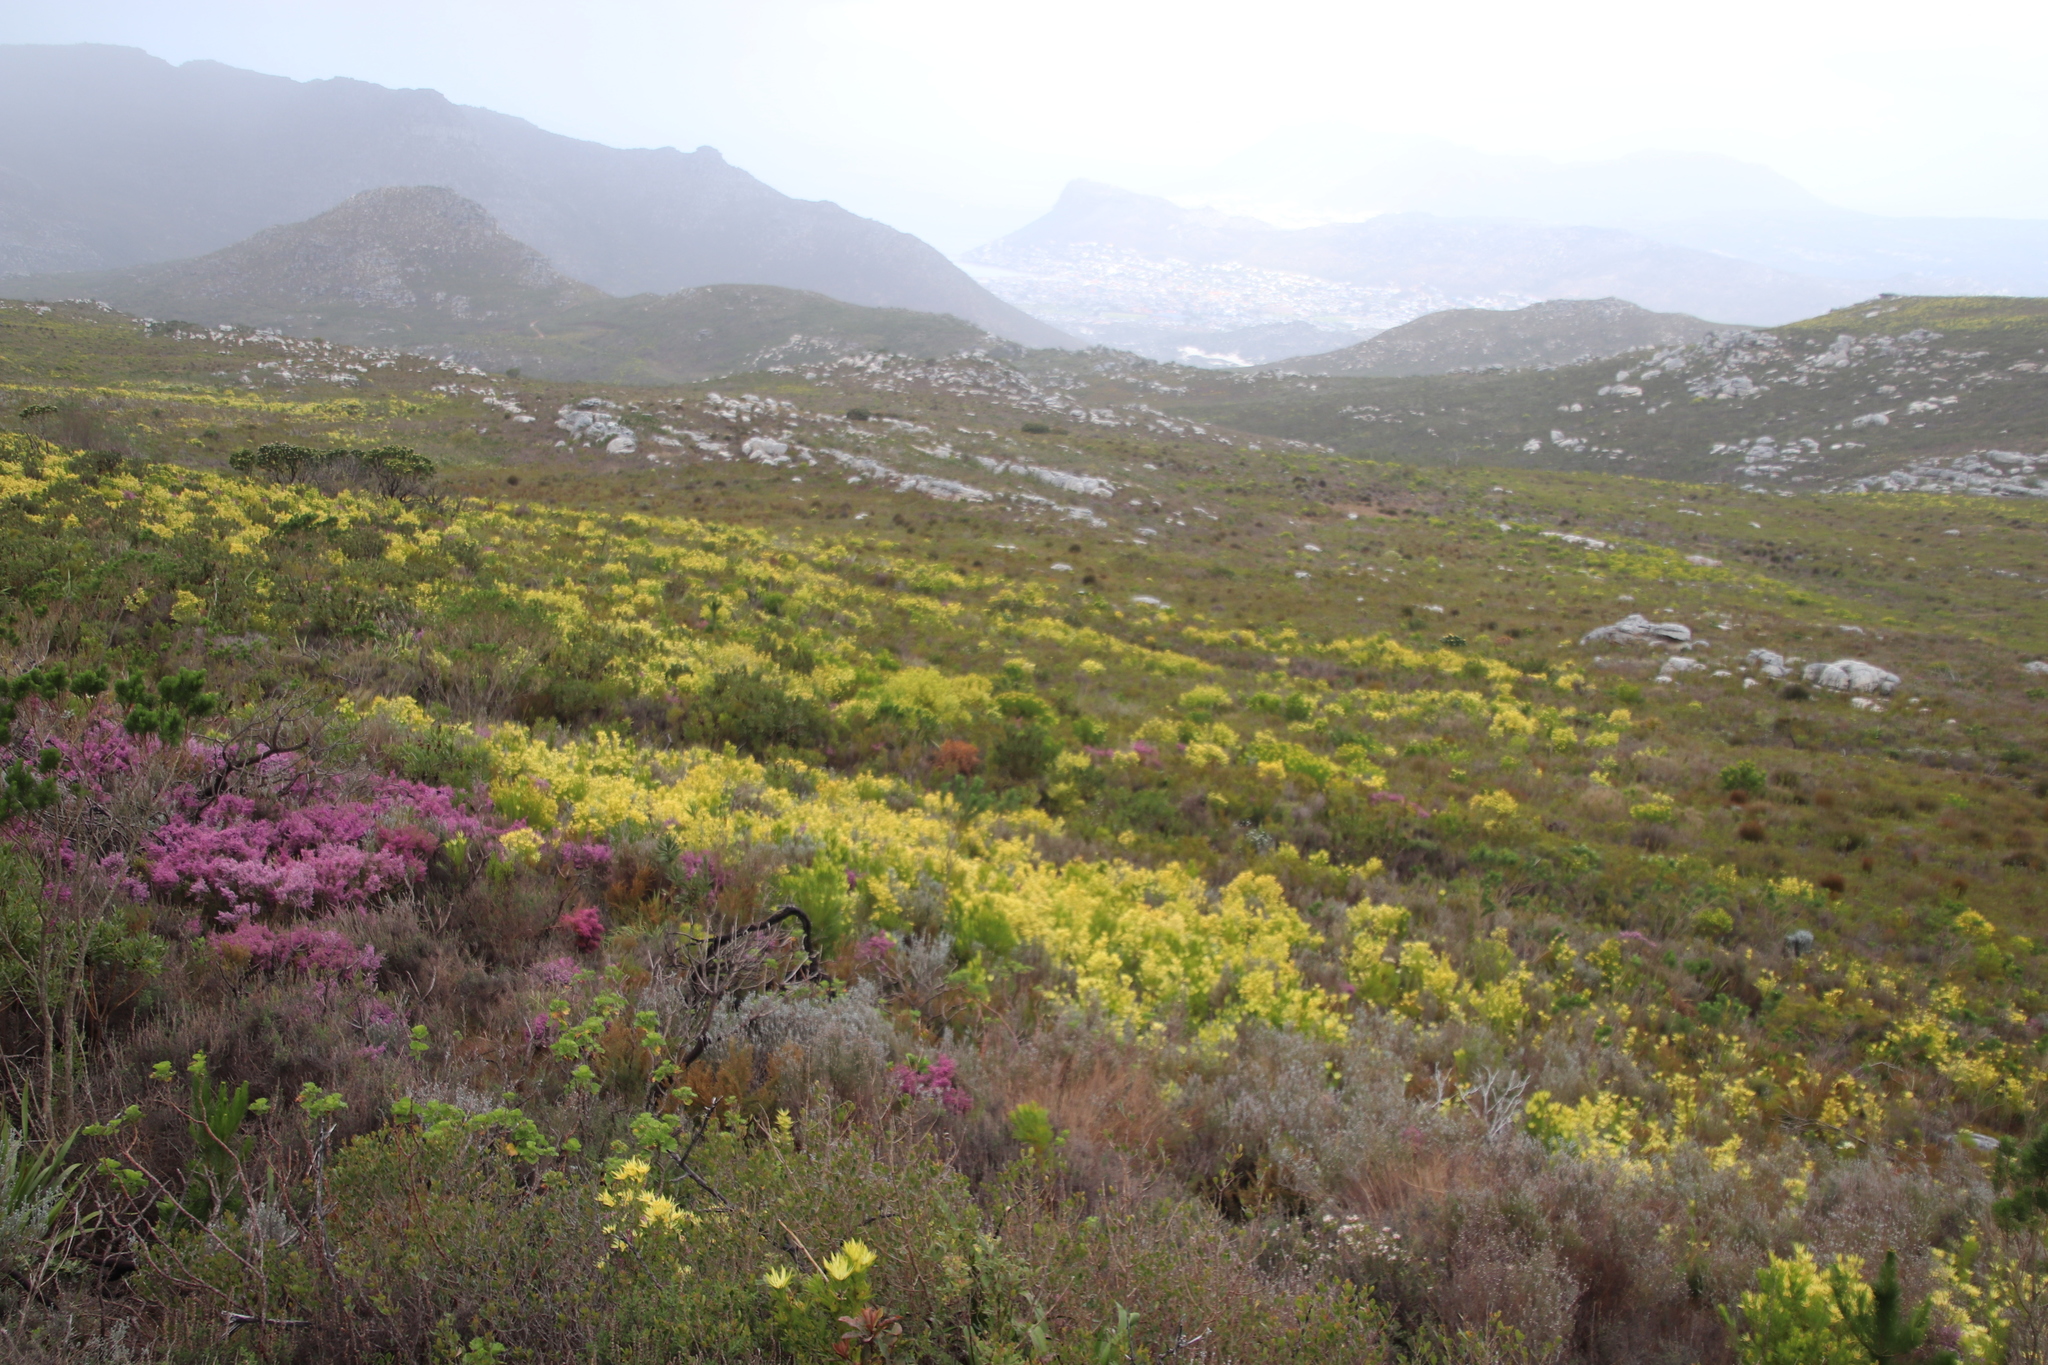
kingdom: Plantae
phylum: Tracheophyta
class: Magnoliopsida
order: Proteales
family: Proteaceae
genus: Leucadendron
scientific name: Leucadendron xanthoconus
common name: Sickle-leaf conebush
